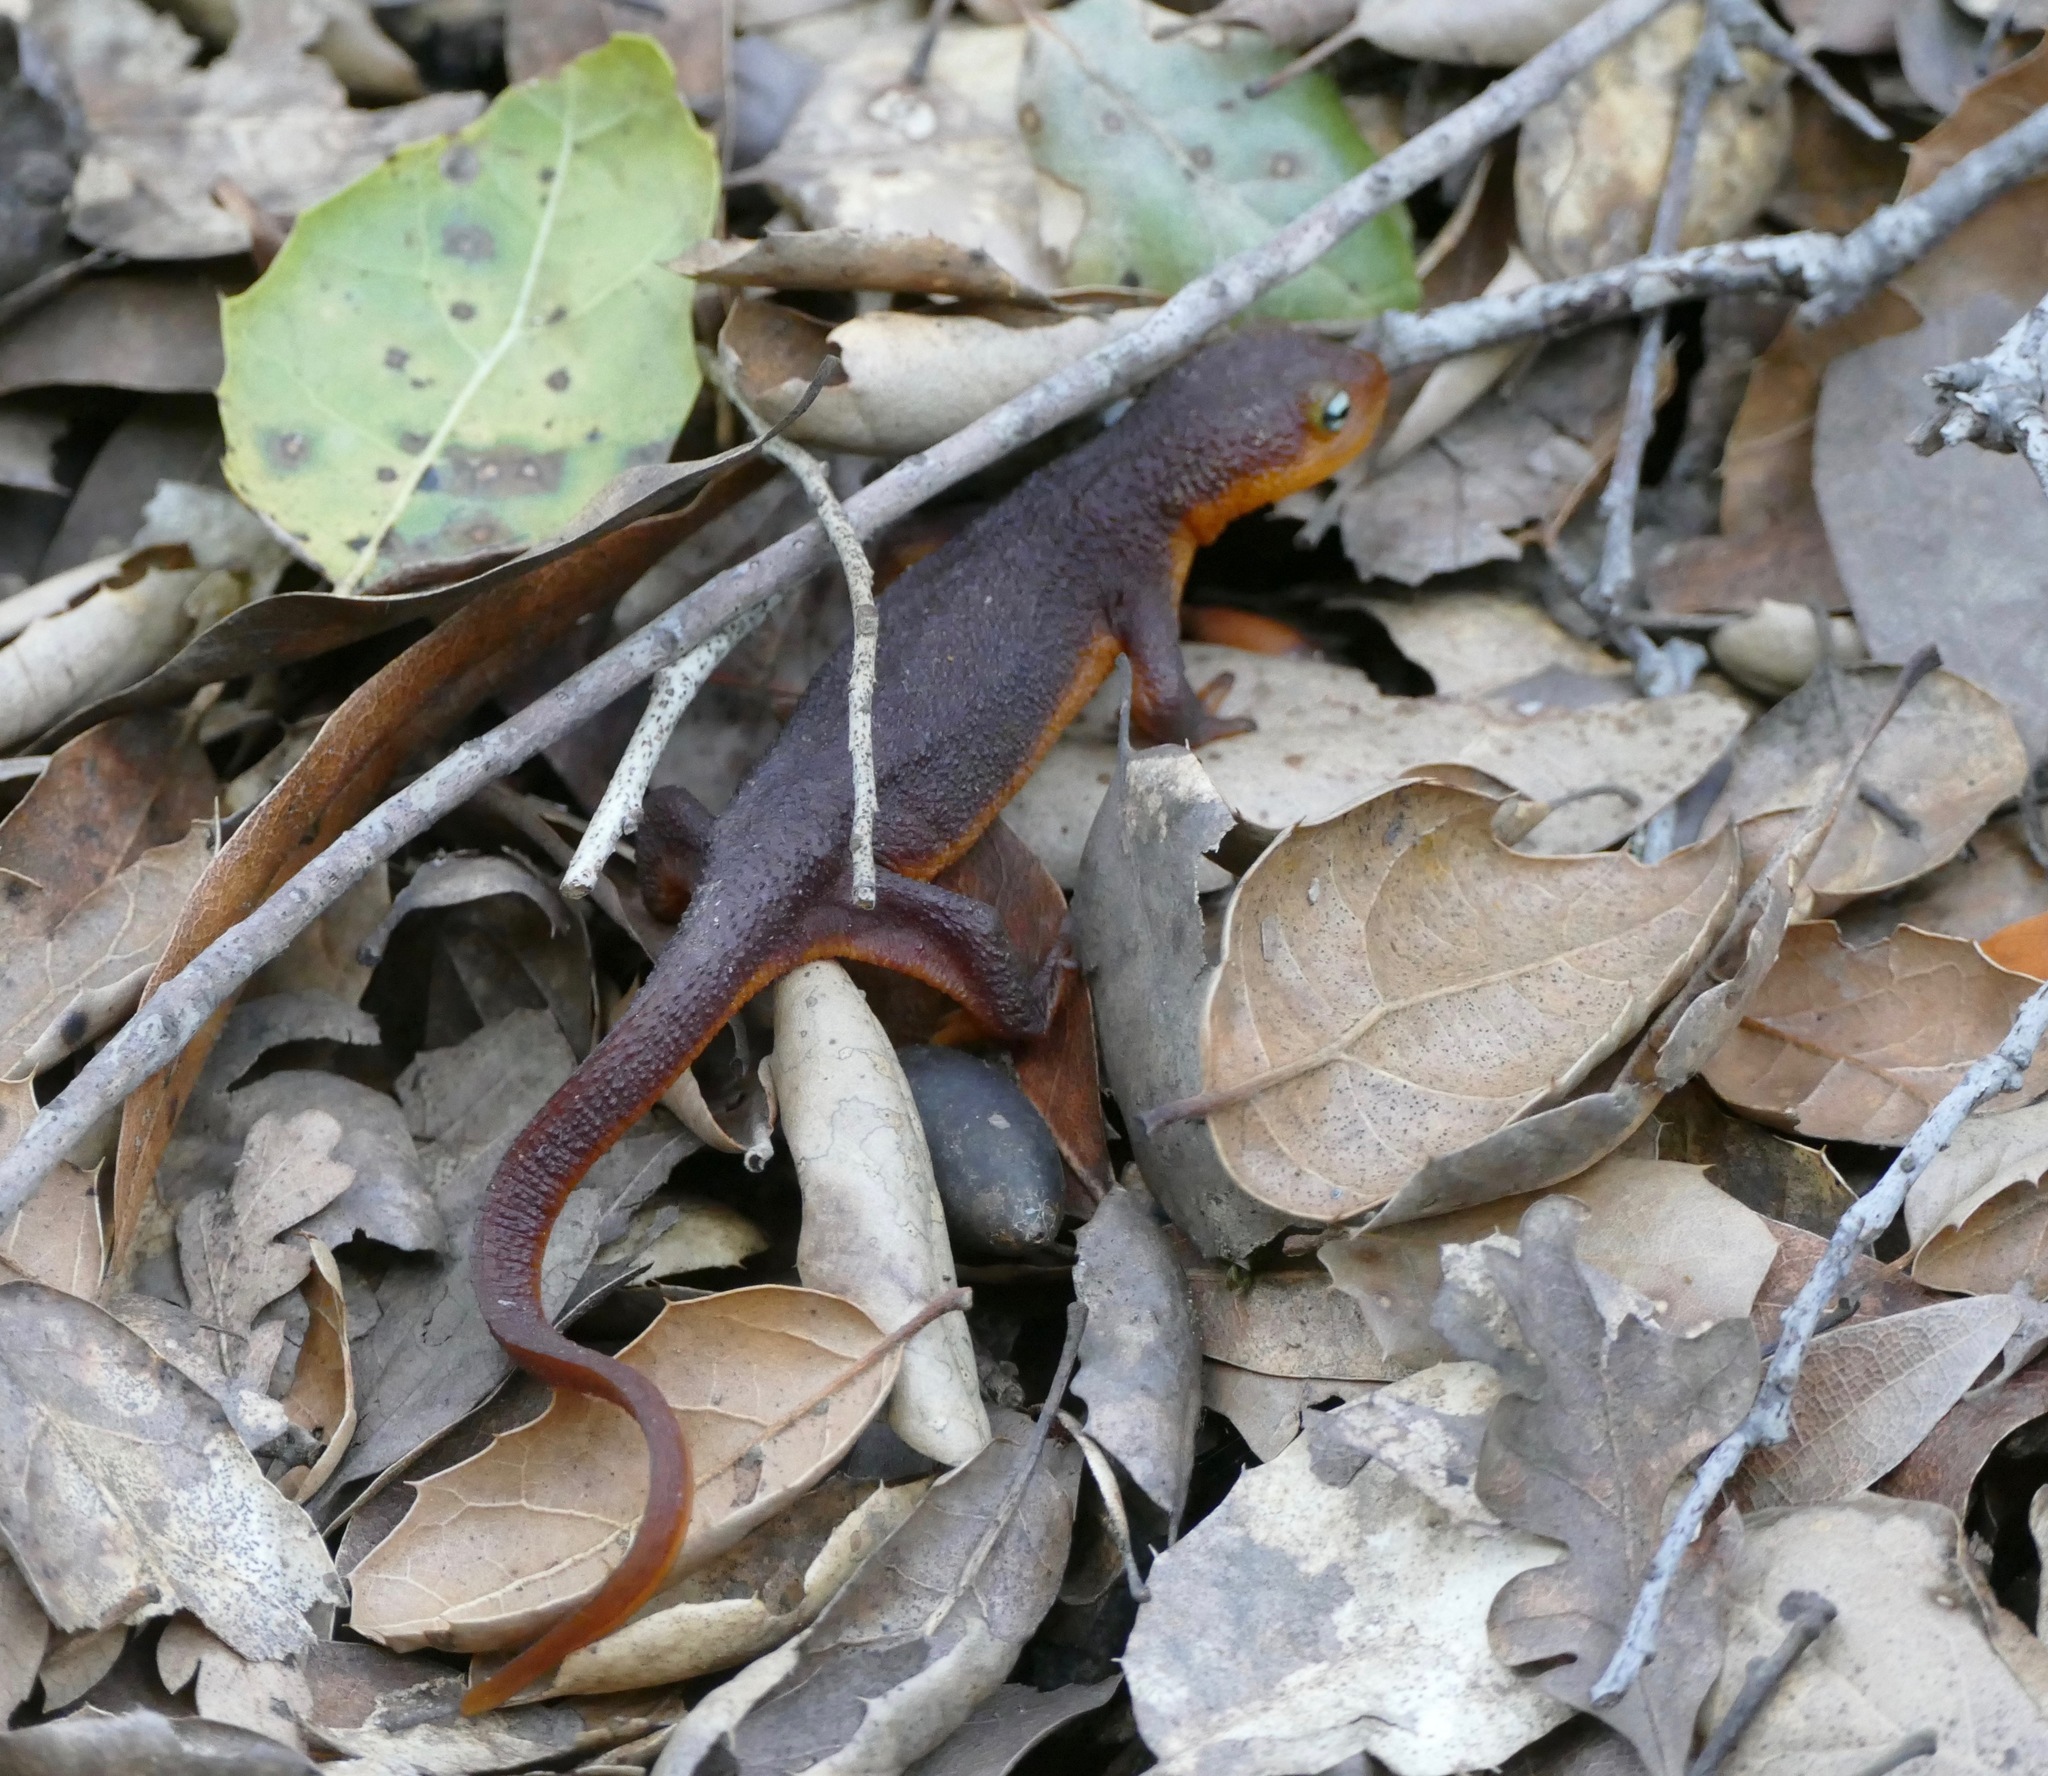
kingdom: Animalia
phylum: Chordata
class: Amphibia
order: Caudata
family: Salamandridae
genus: Taricha
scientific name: Taricha torosa
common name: California newt
